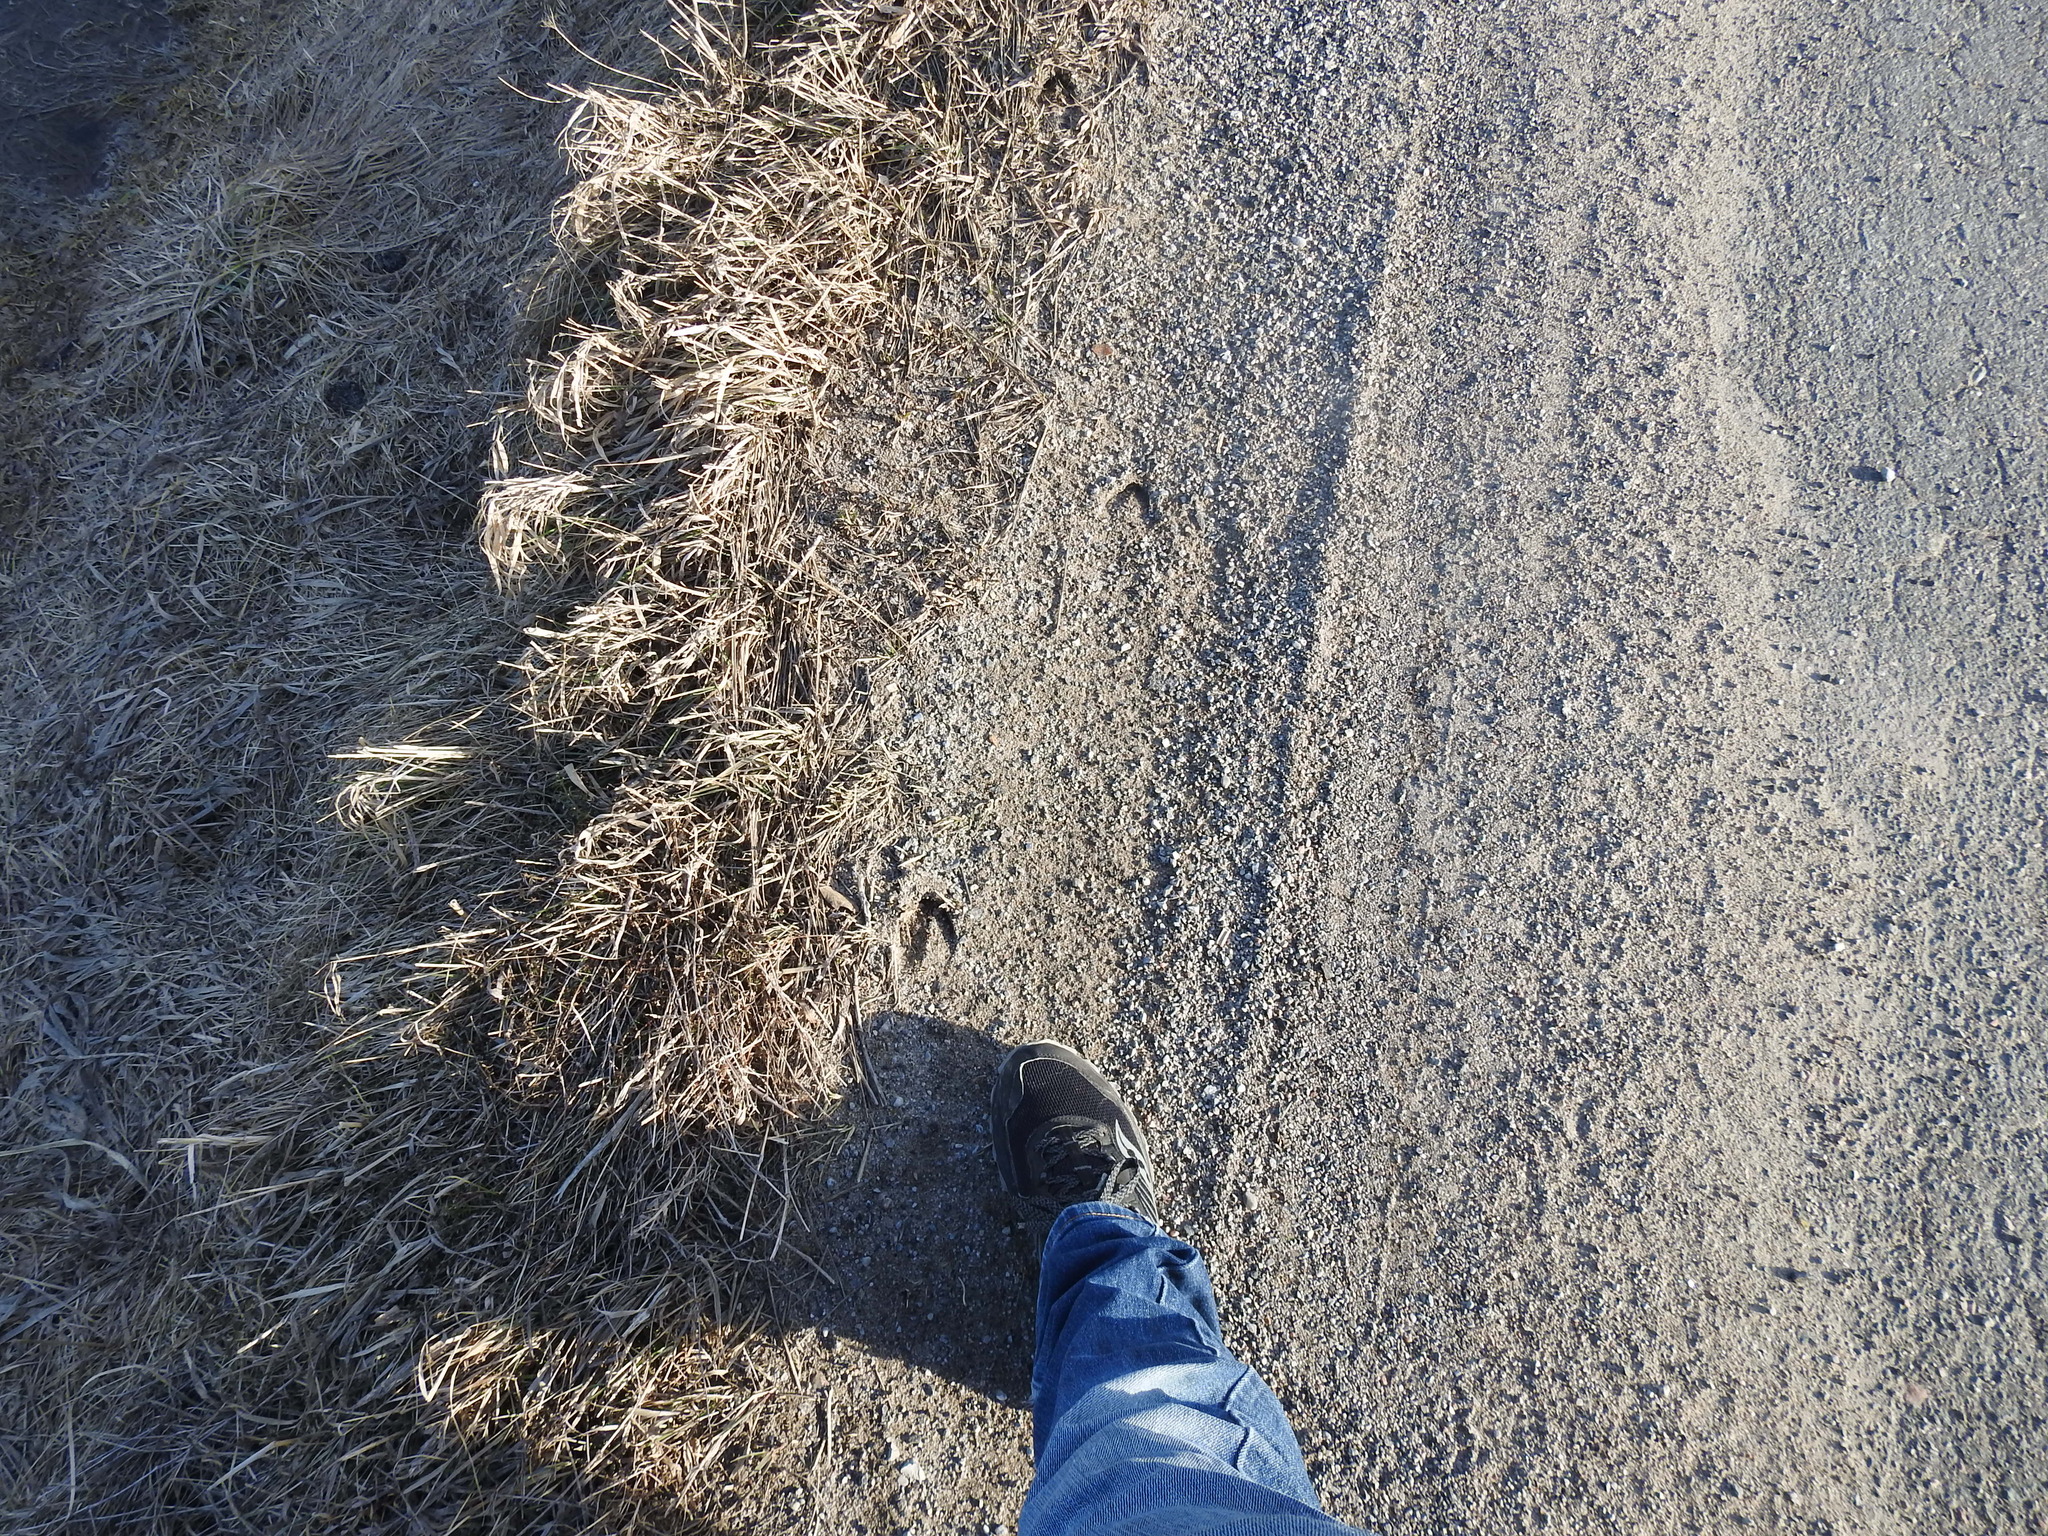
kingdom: Animalia
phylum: Chordata
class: Mammalia
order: Artiodactyla
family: Cervidae
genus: Odocoileus
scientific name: Odocoileus virginianus
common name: White-tailed deer
